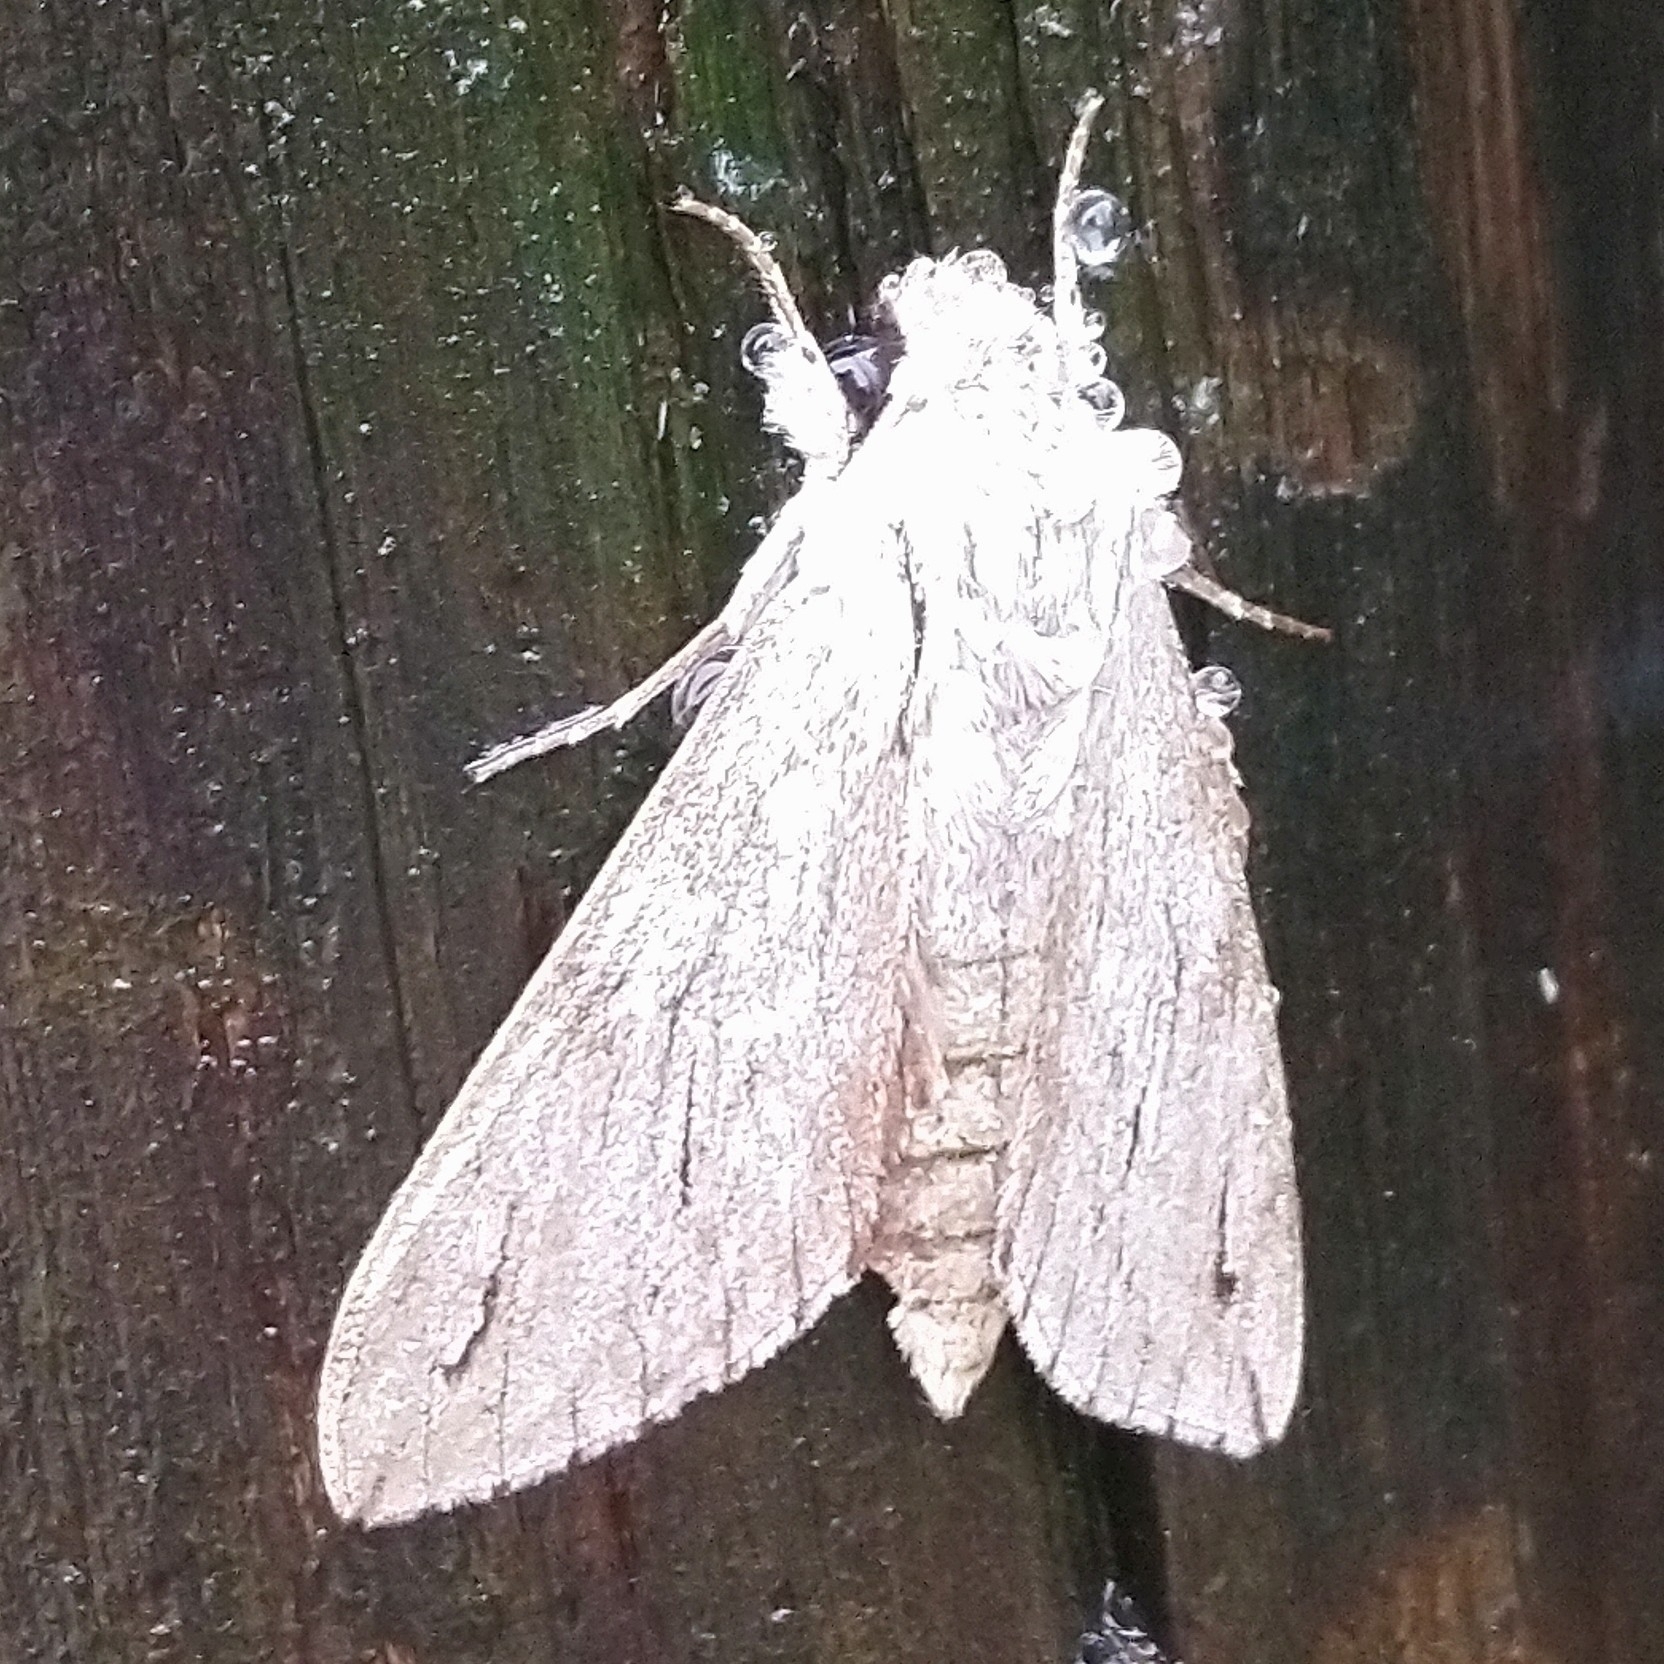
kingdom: Animalia
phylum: Arthropoda
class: Insecta
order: Lepidoptera
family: Sphingidae
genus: Oligographa
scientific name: Oligographa juniperi
